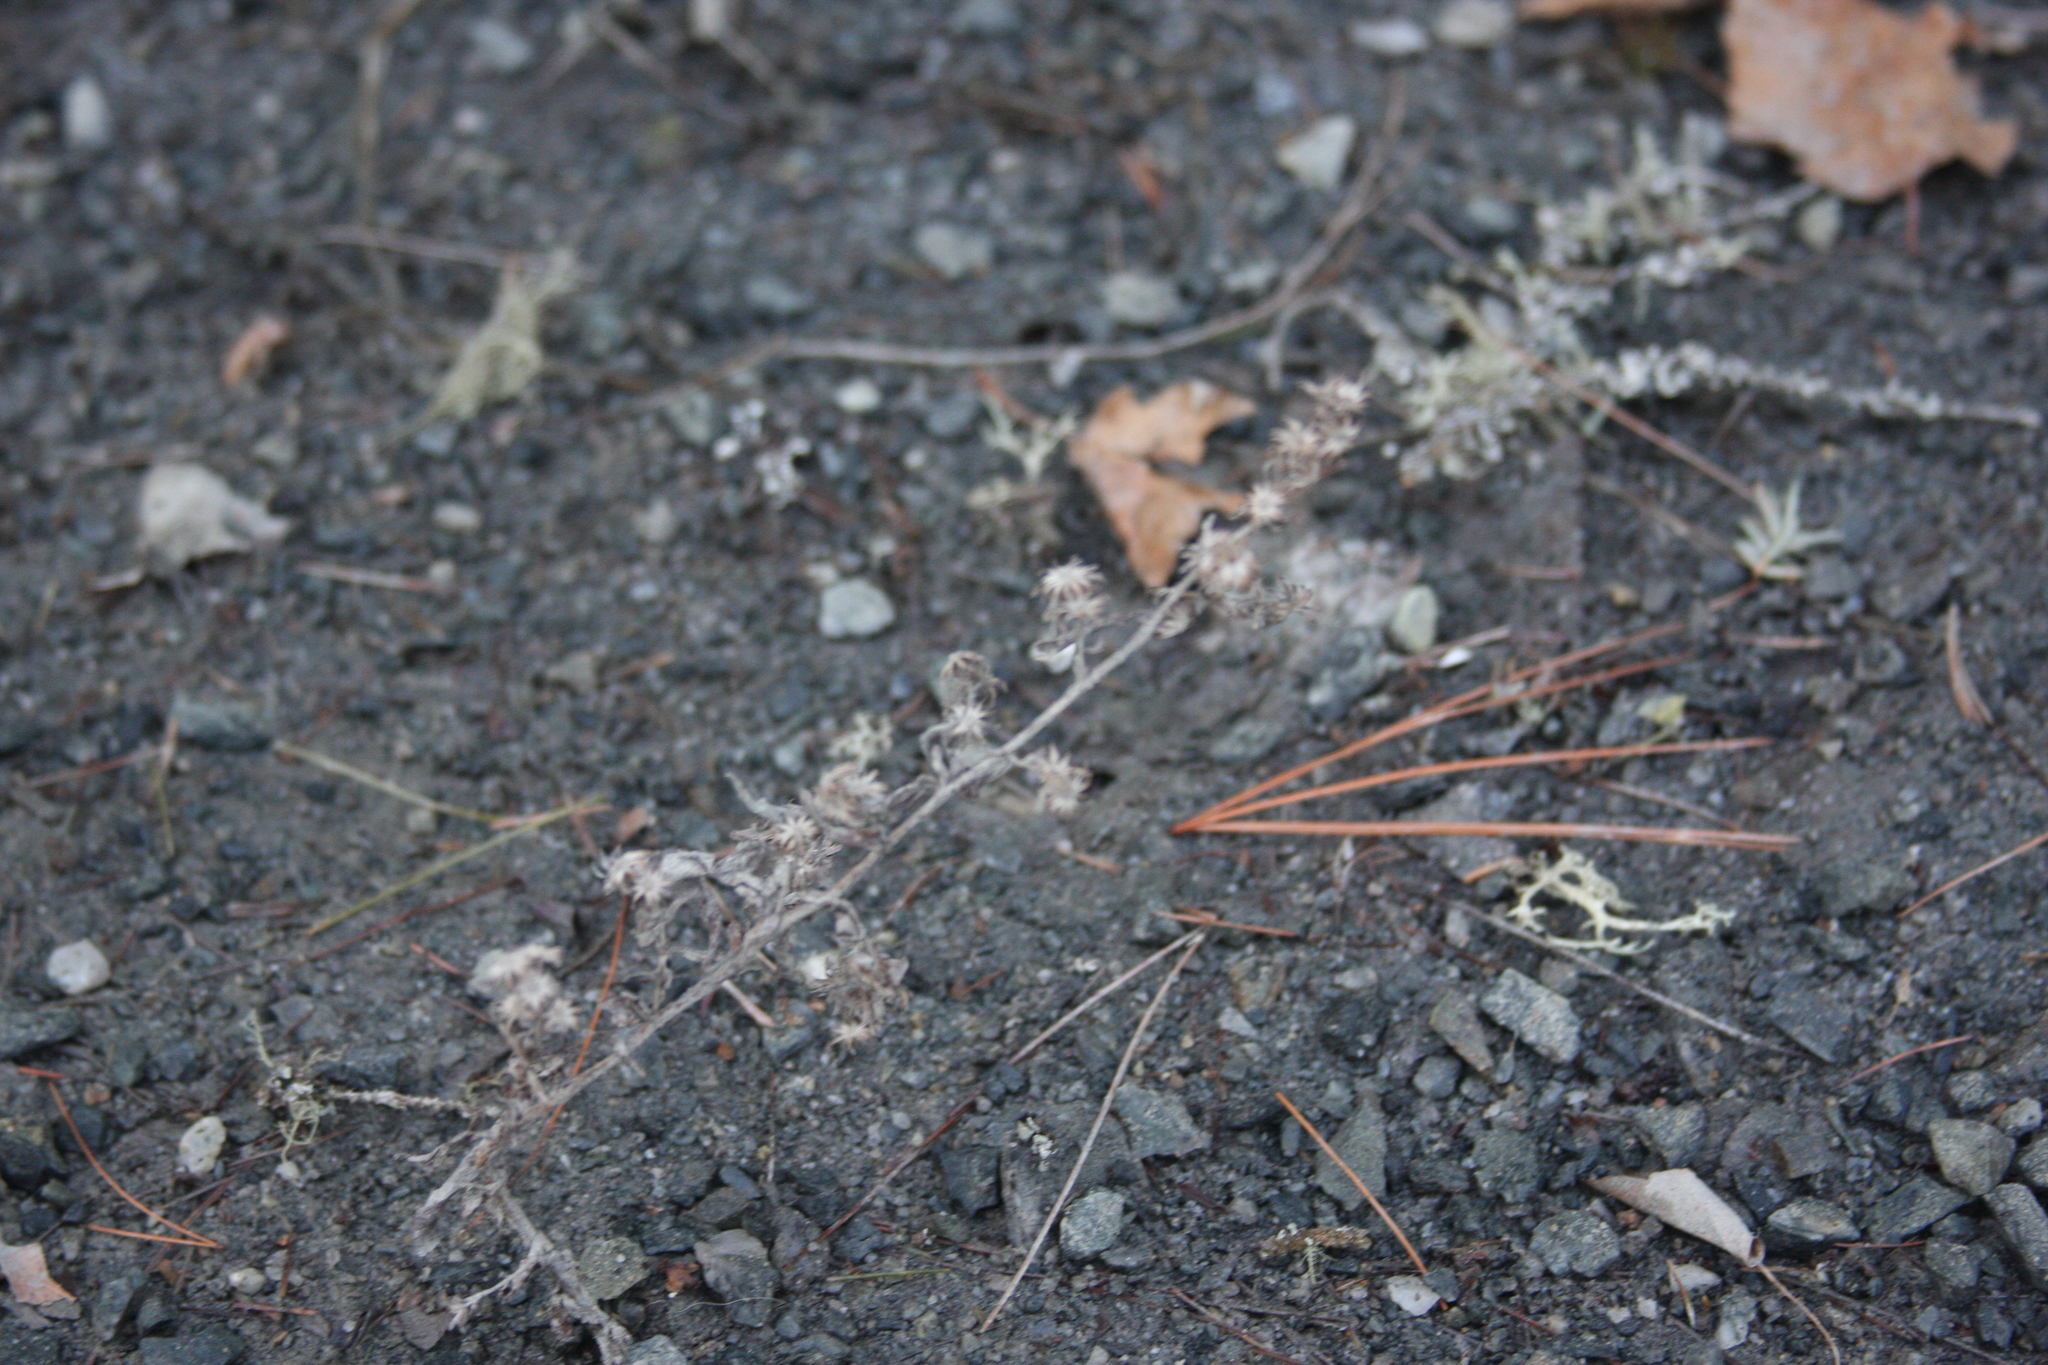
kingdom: Plantae
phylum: Tracheophyta
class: Magnoliopsida
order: Asterales
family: Asteraceae
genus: Solidago
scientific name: Solidago bicolor
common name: Silverrod
